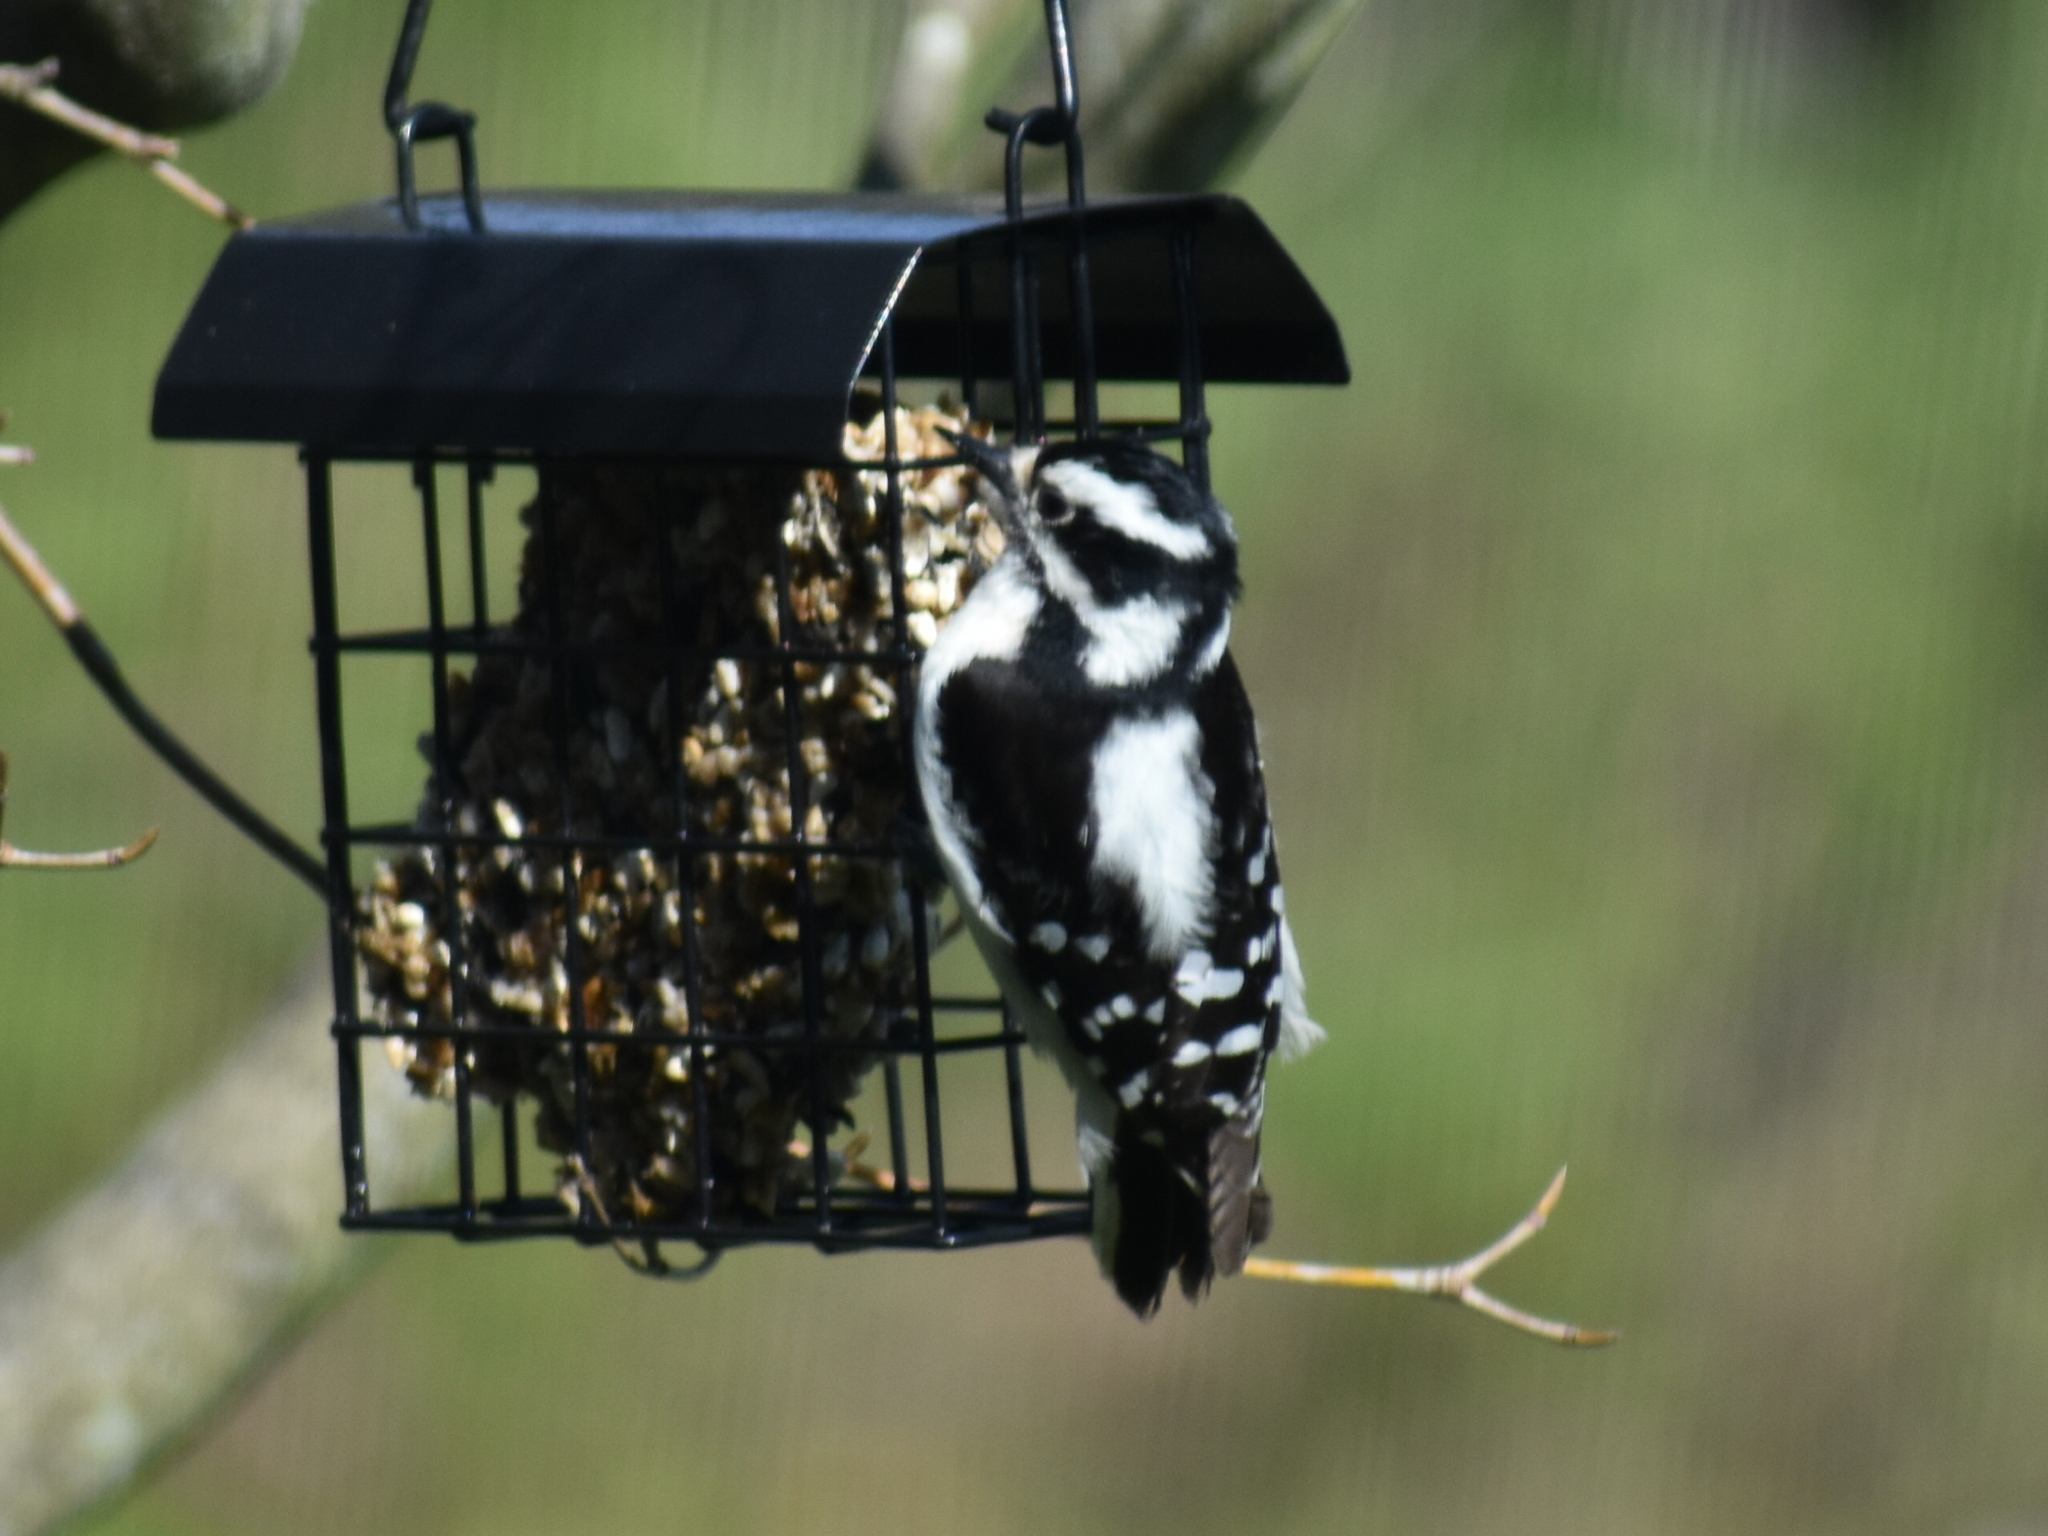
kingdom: Animalia
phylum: Chordata
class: Aves
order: Piciformes
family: Picidae
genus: Dryobates
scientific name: Dryobates pubescens
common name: Downy woodpecker
